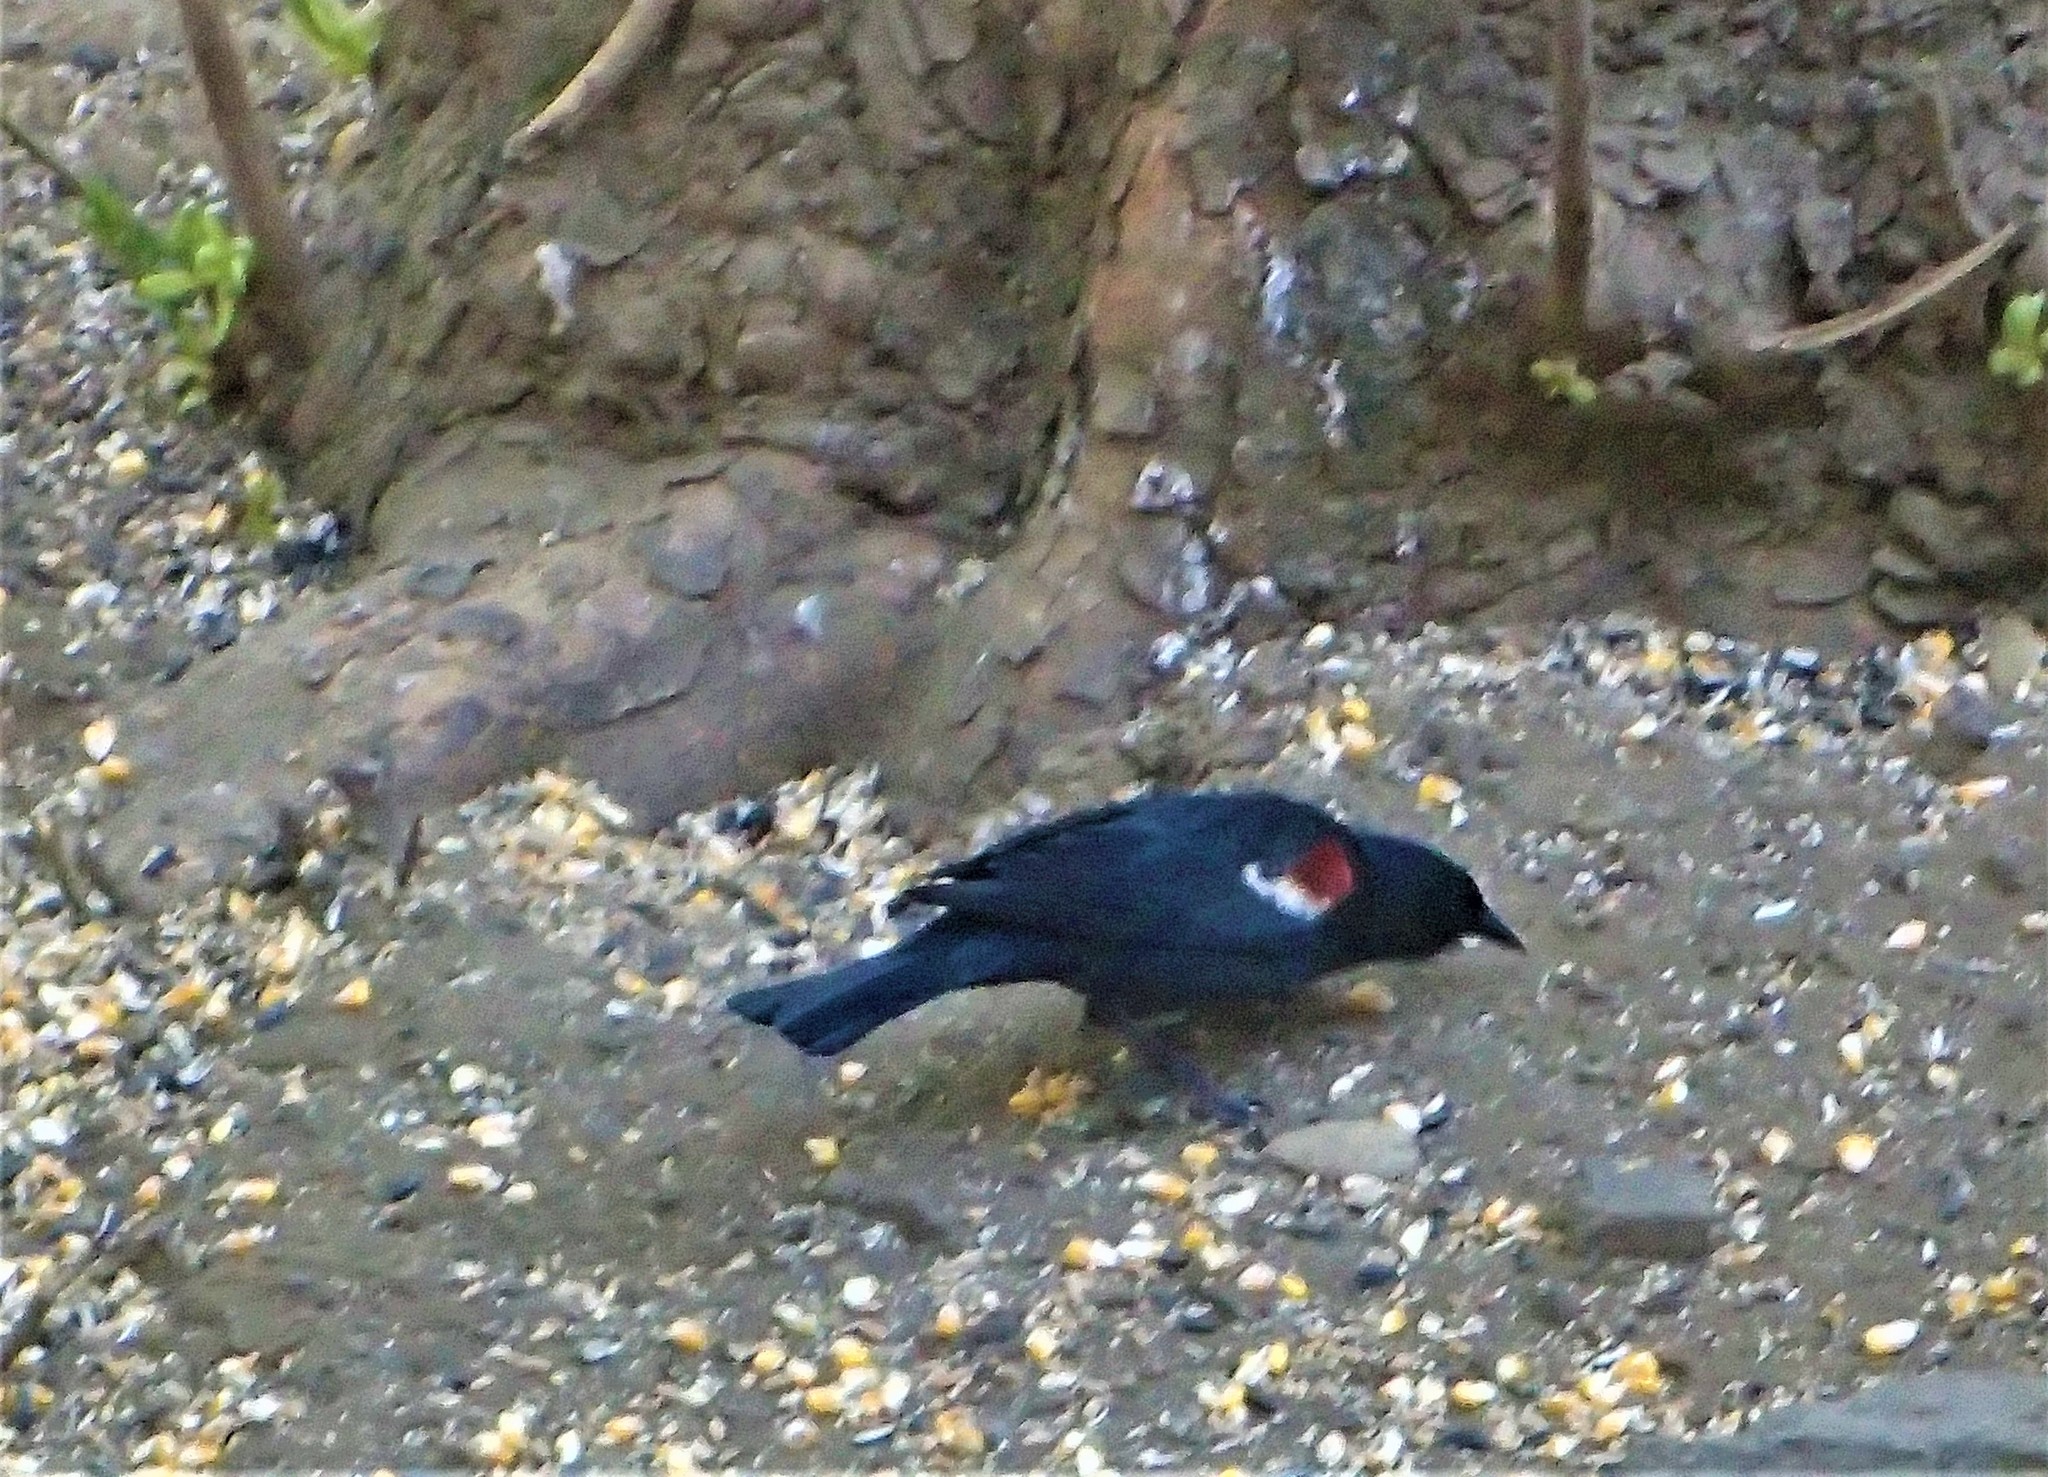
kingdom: Animalia
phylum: Chordata
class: Aves
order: Passeriformes
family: Icteridae
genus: Agelaius
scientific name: Agelaius tricolor
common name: Tricolored blackbird
